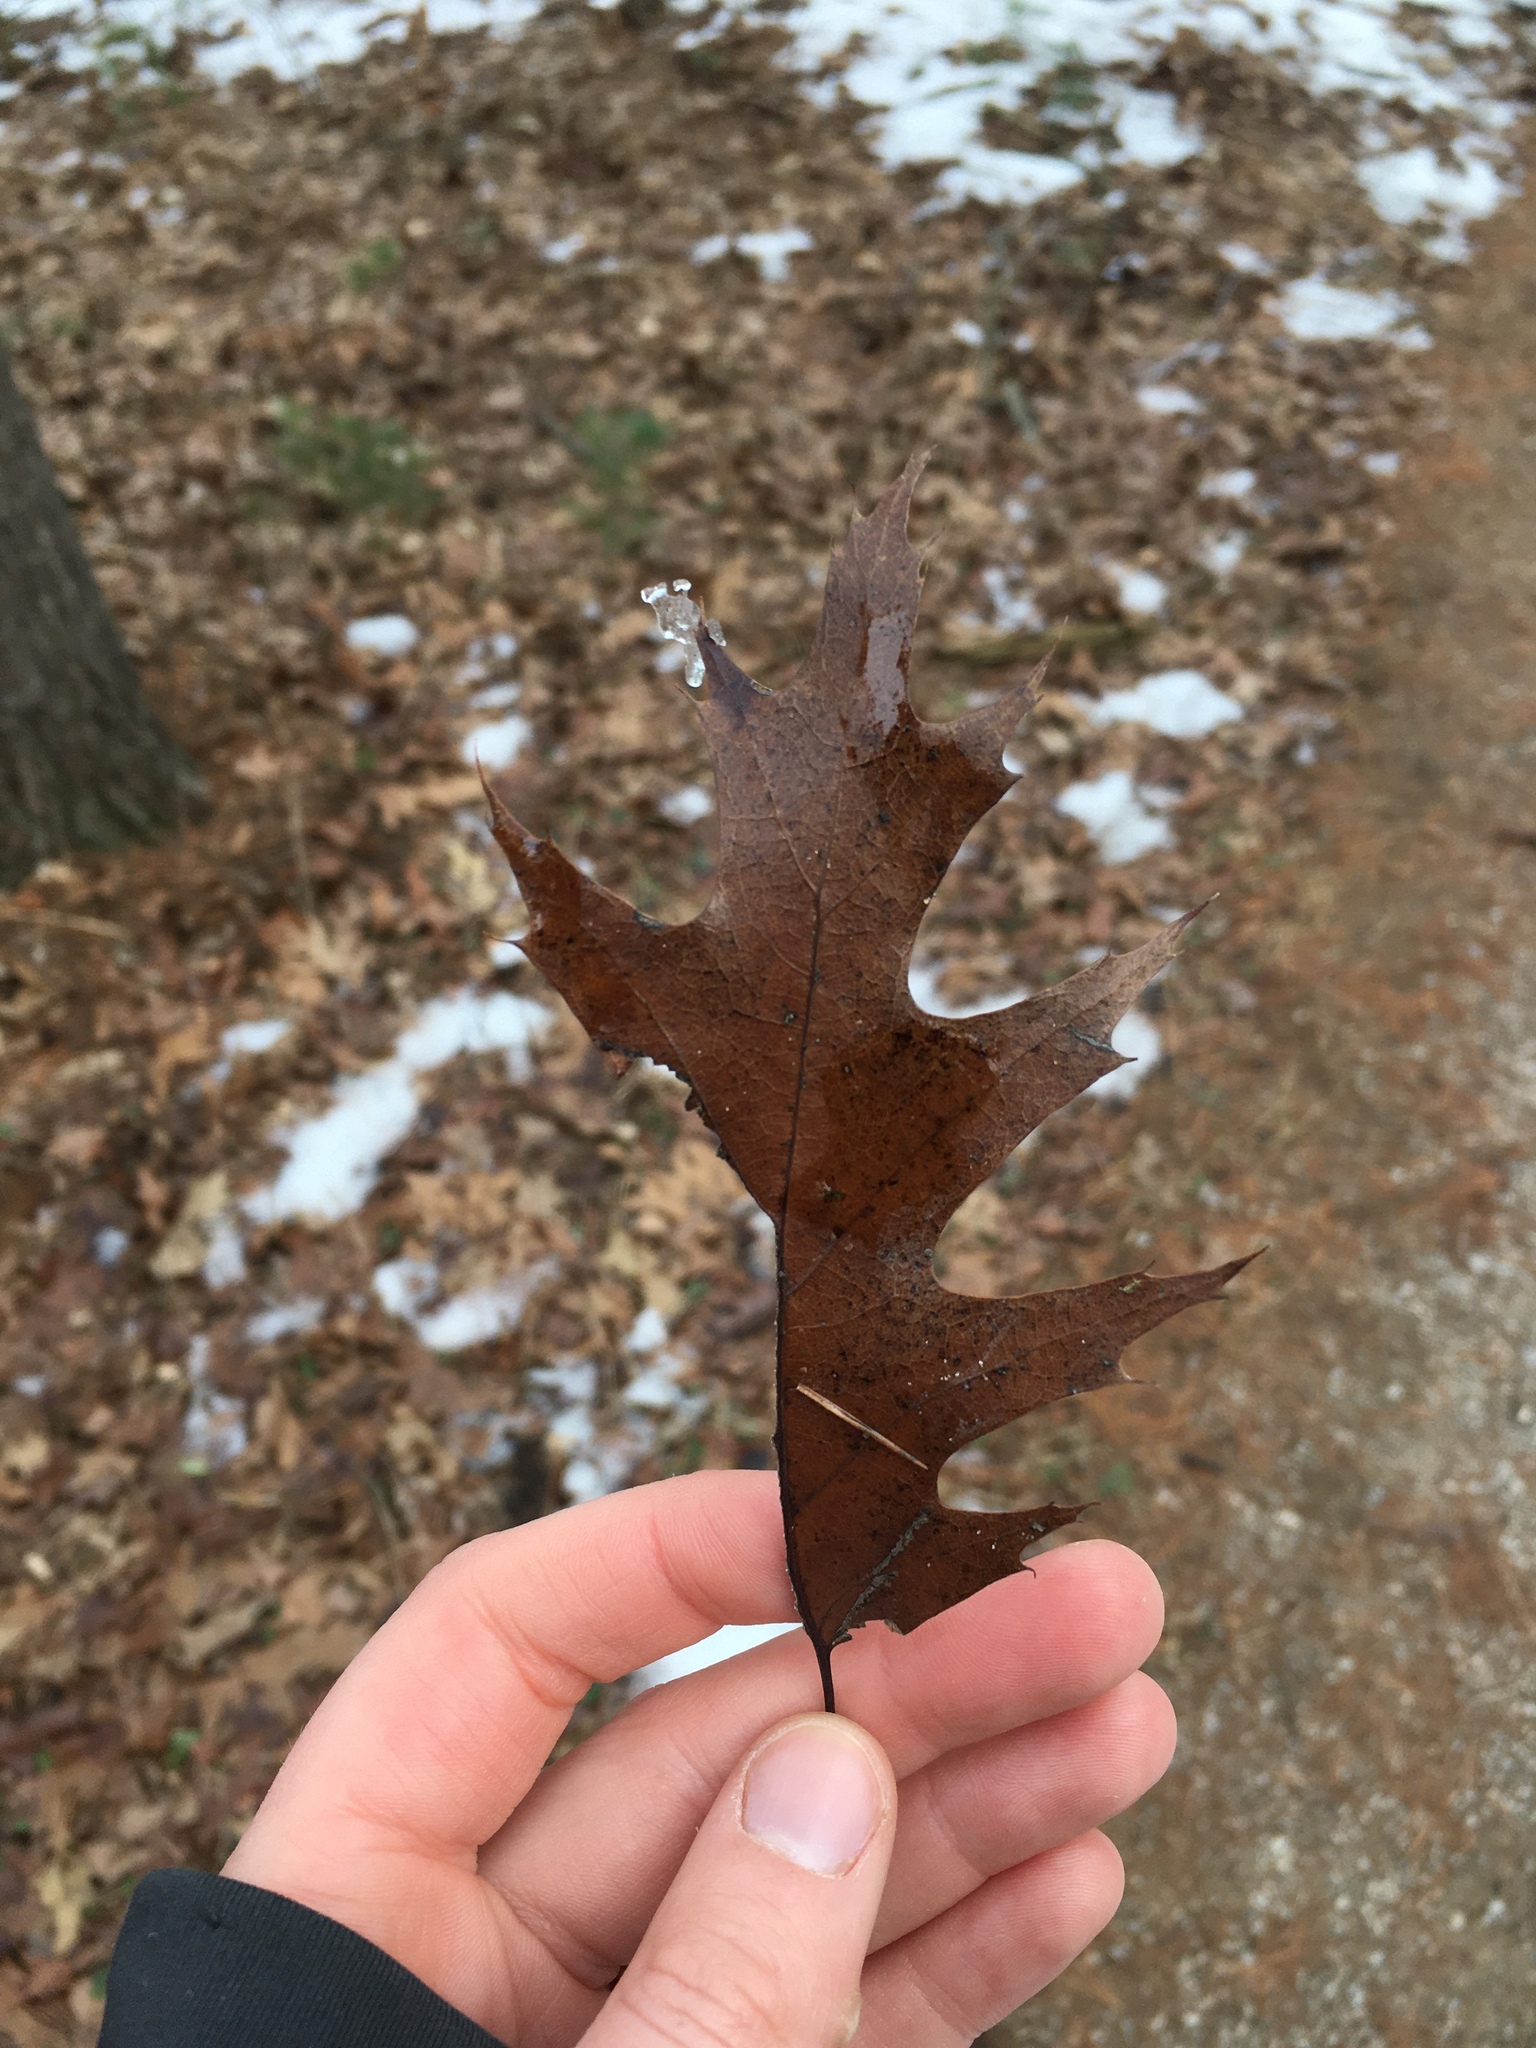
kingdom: Plantae
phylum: Tracheophyta
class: Magnoliopsida
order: Fagales
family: Fagaceae
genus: Quercus
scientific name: Quercus velutina
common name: Black oak
